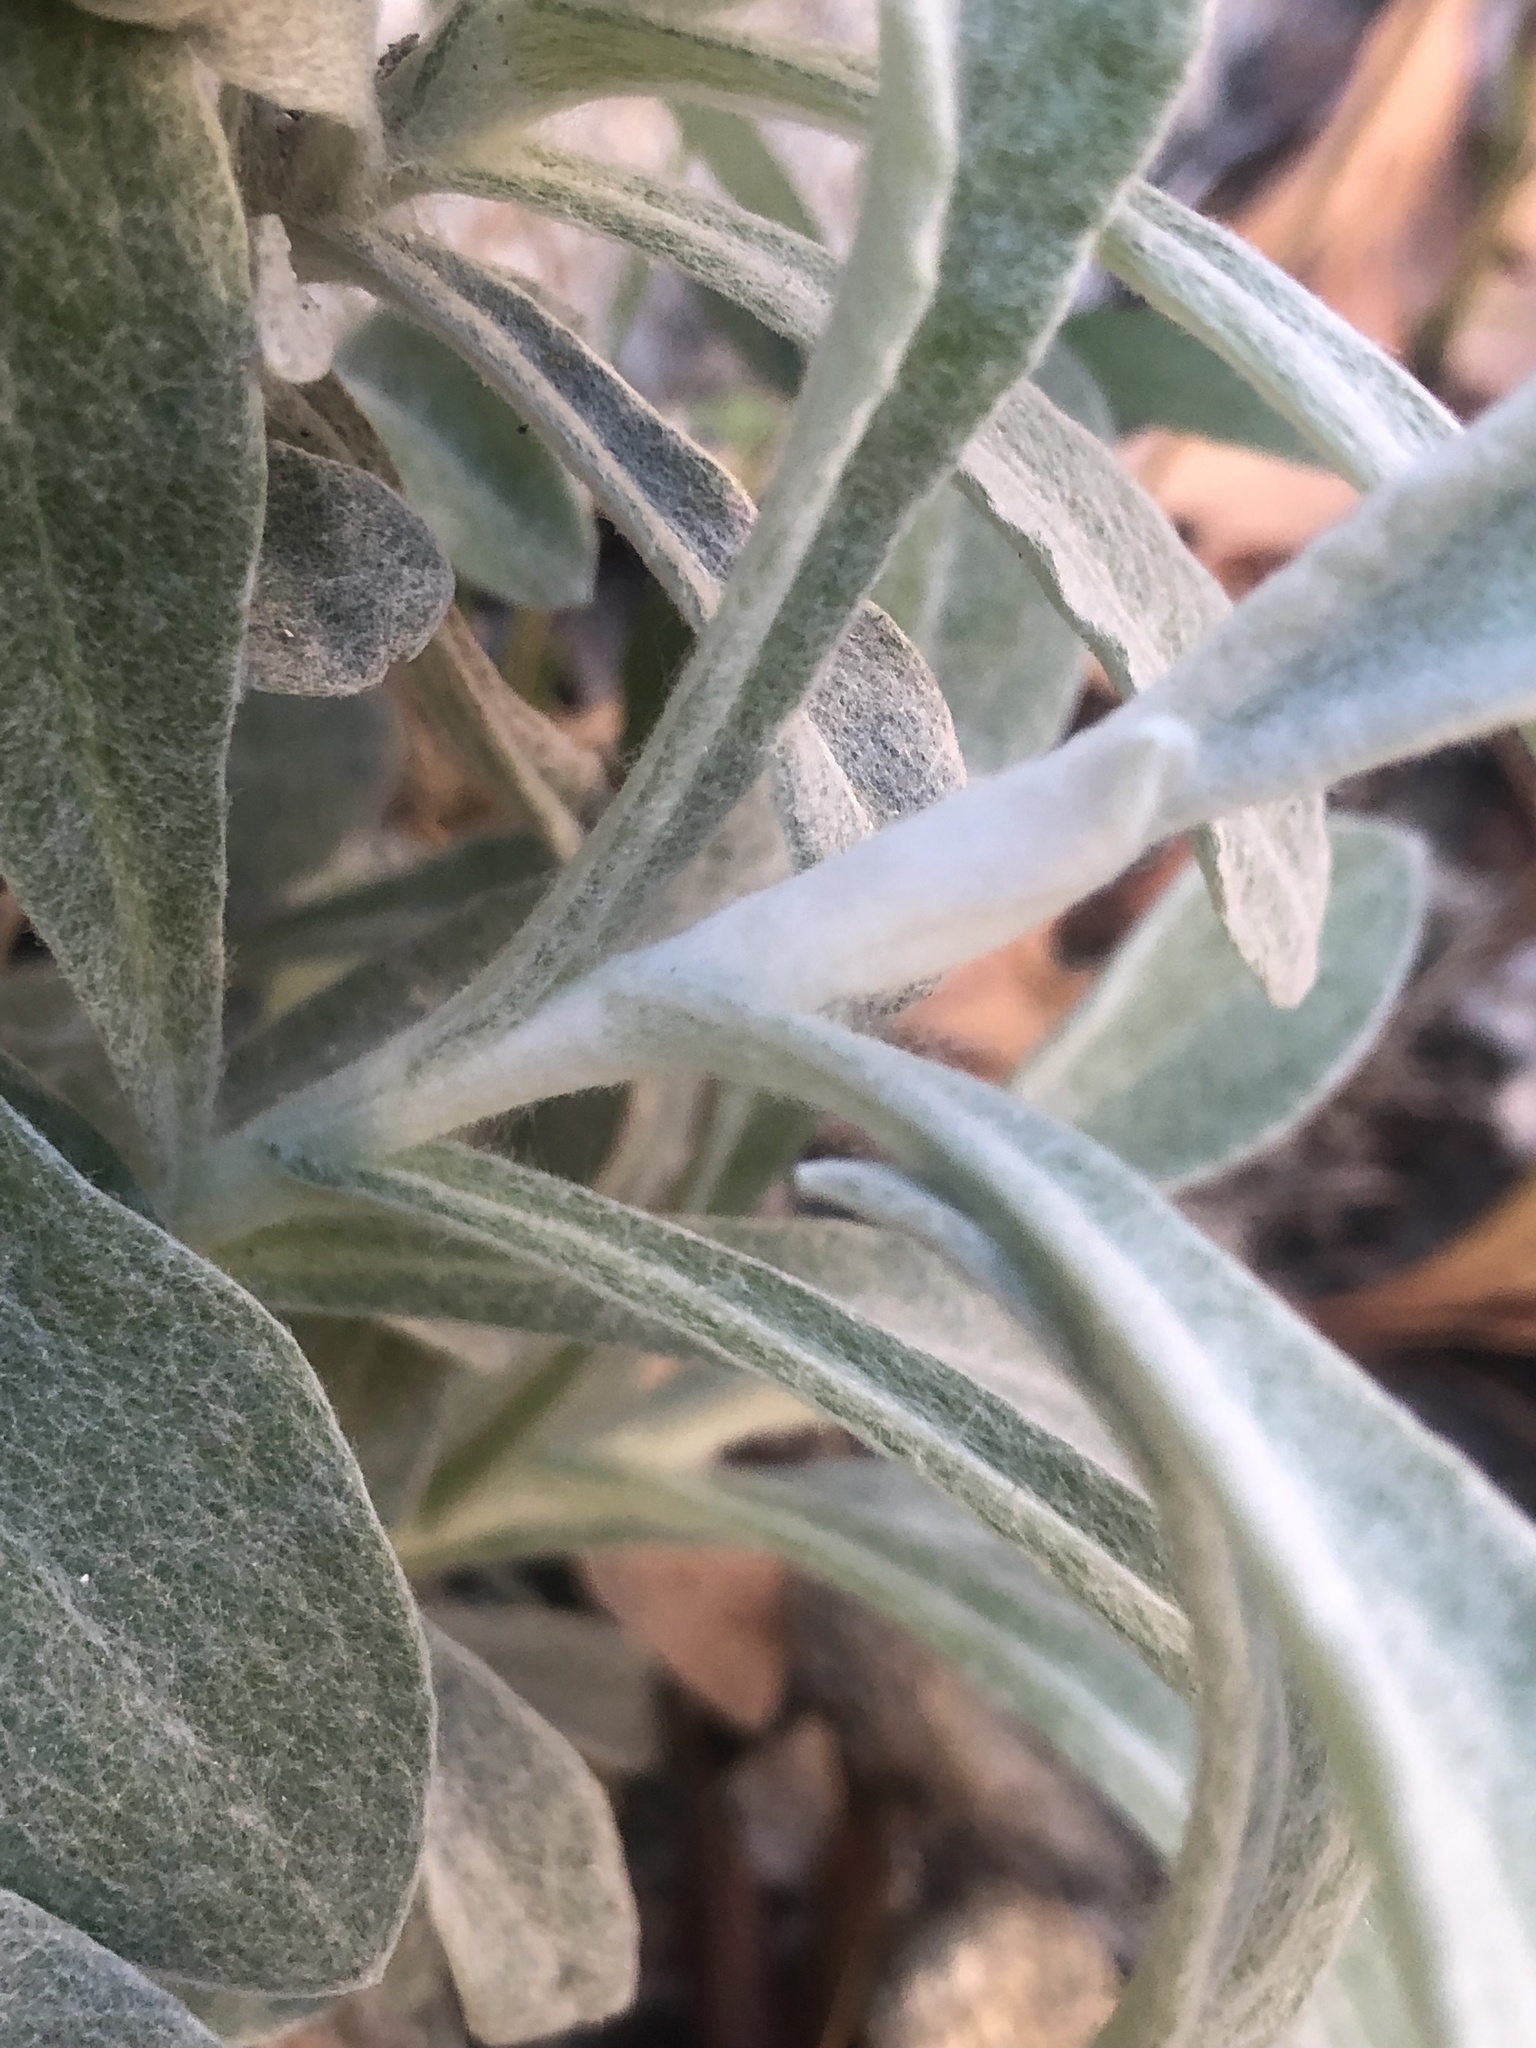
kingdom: Plantae
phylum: Tracheophyta
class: Magnoliopsida
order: Asterales
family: Asteraceae
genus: Pseudognaphalium
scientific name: Pseudognaphalium
